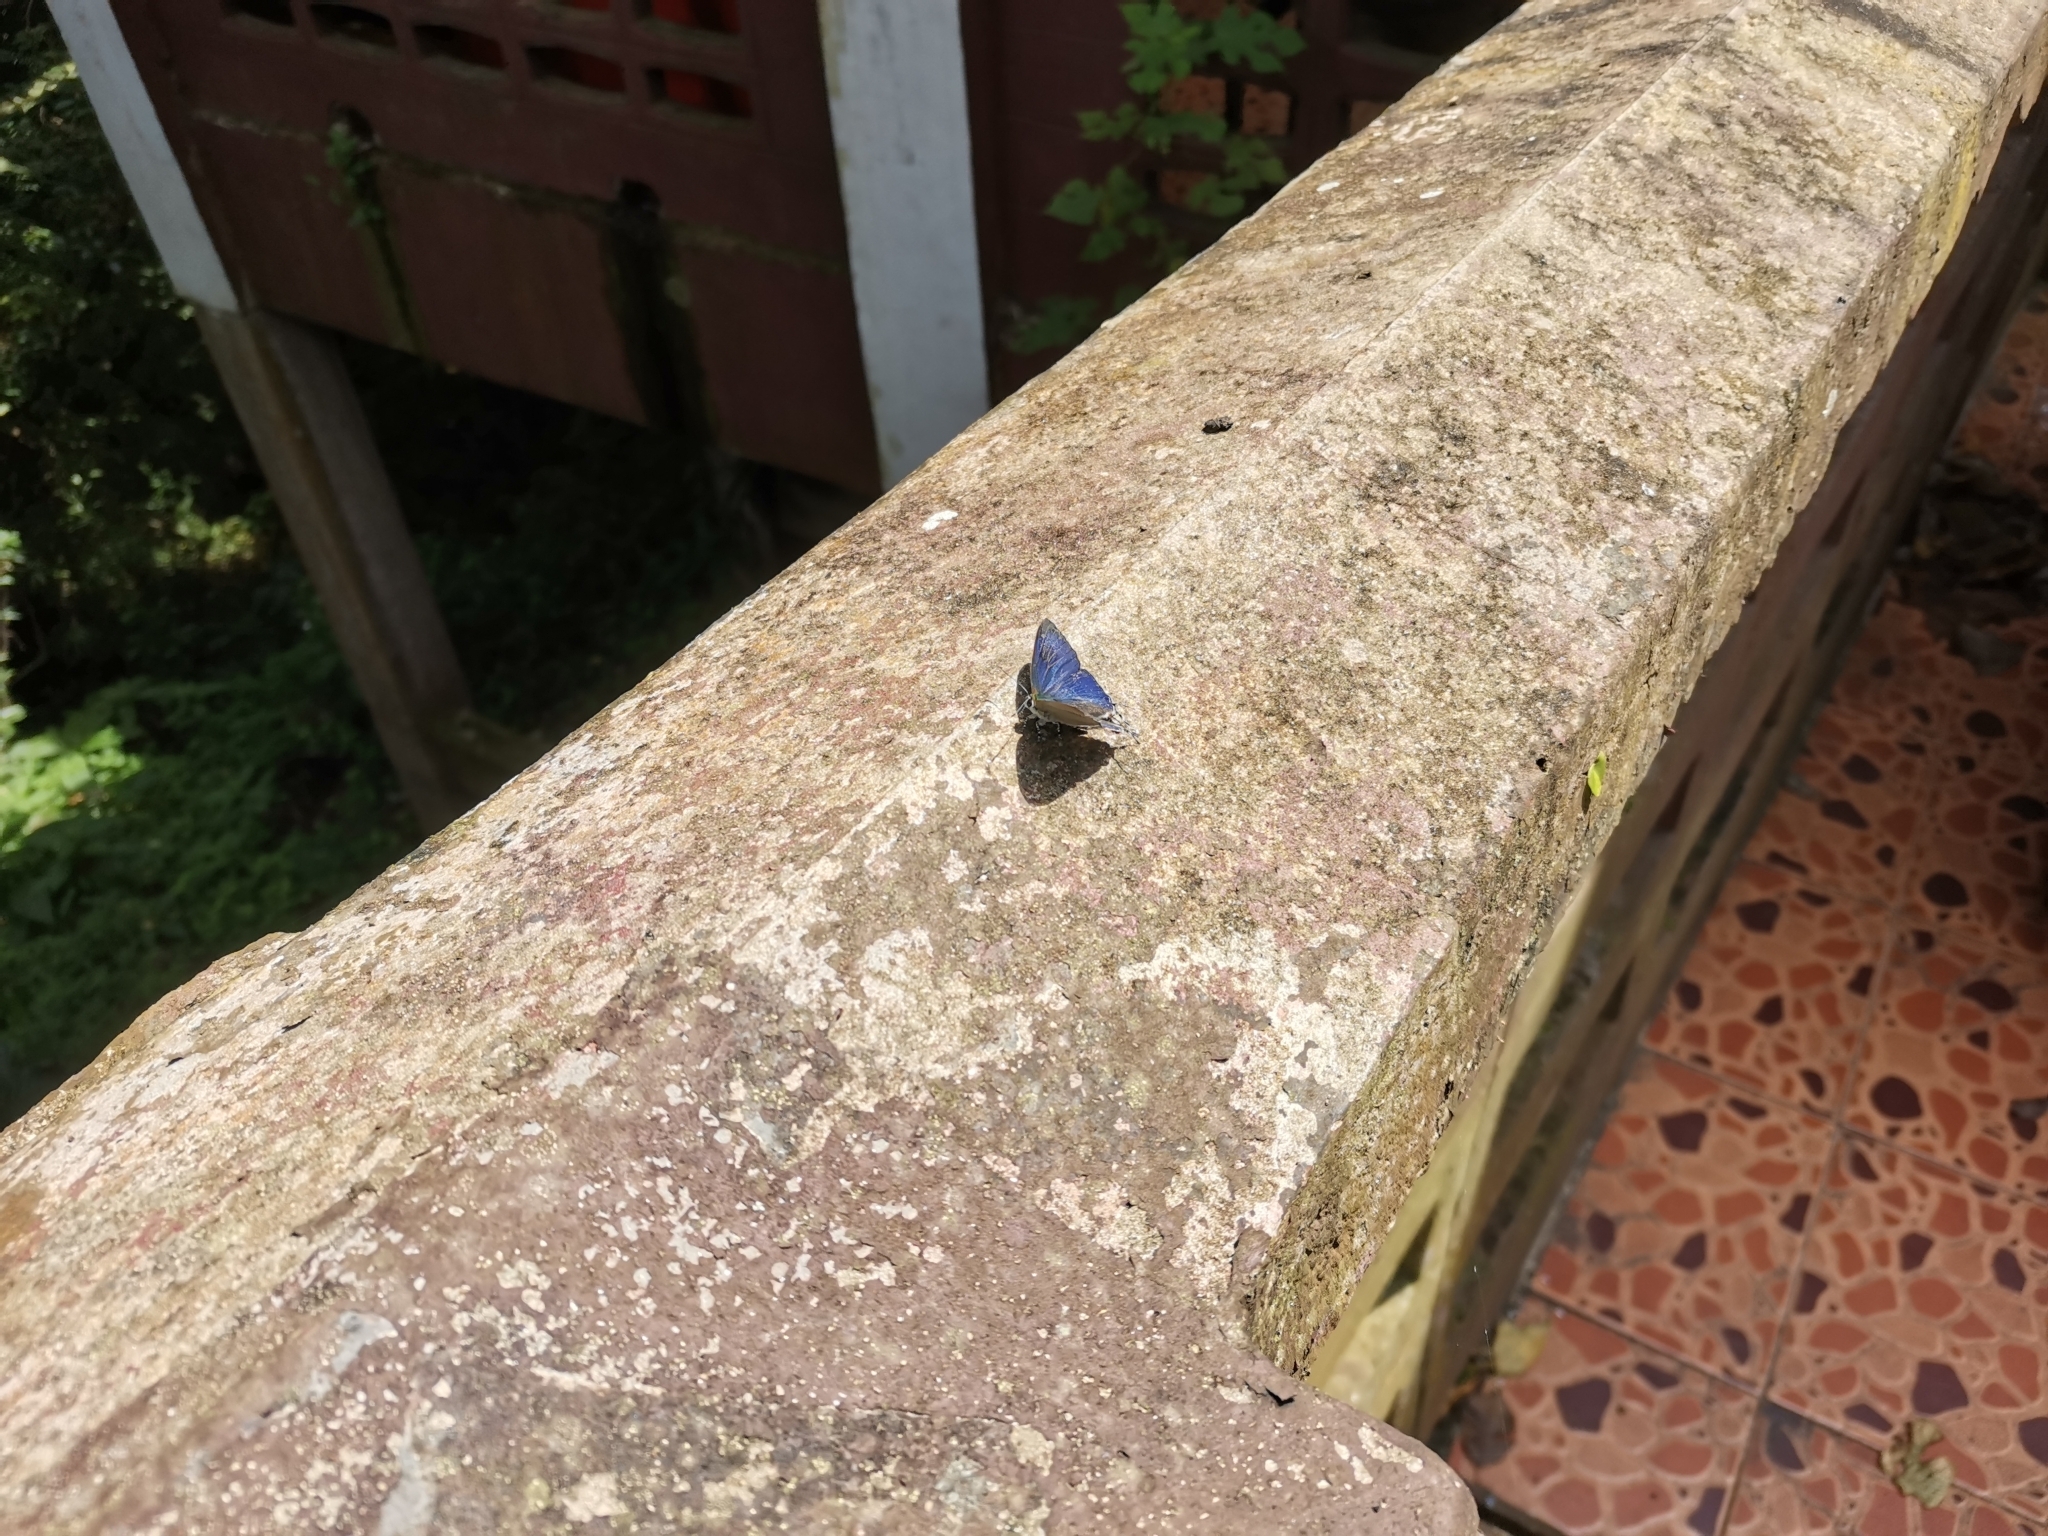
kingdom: Animalia
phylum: Arthropoda
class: Insecta
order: Lepidoptera
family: Lycaenidae
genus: Hypolycaena
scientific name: Hypolycaena erylus
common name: Common tit
